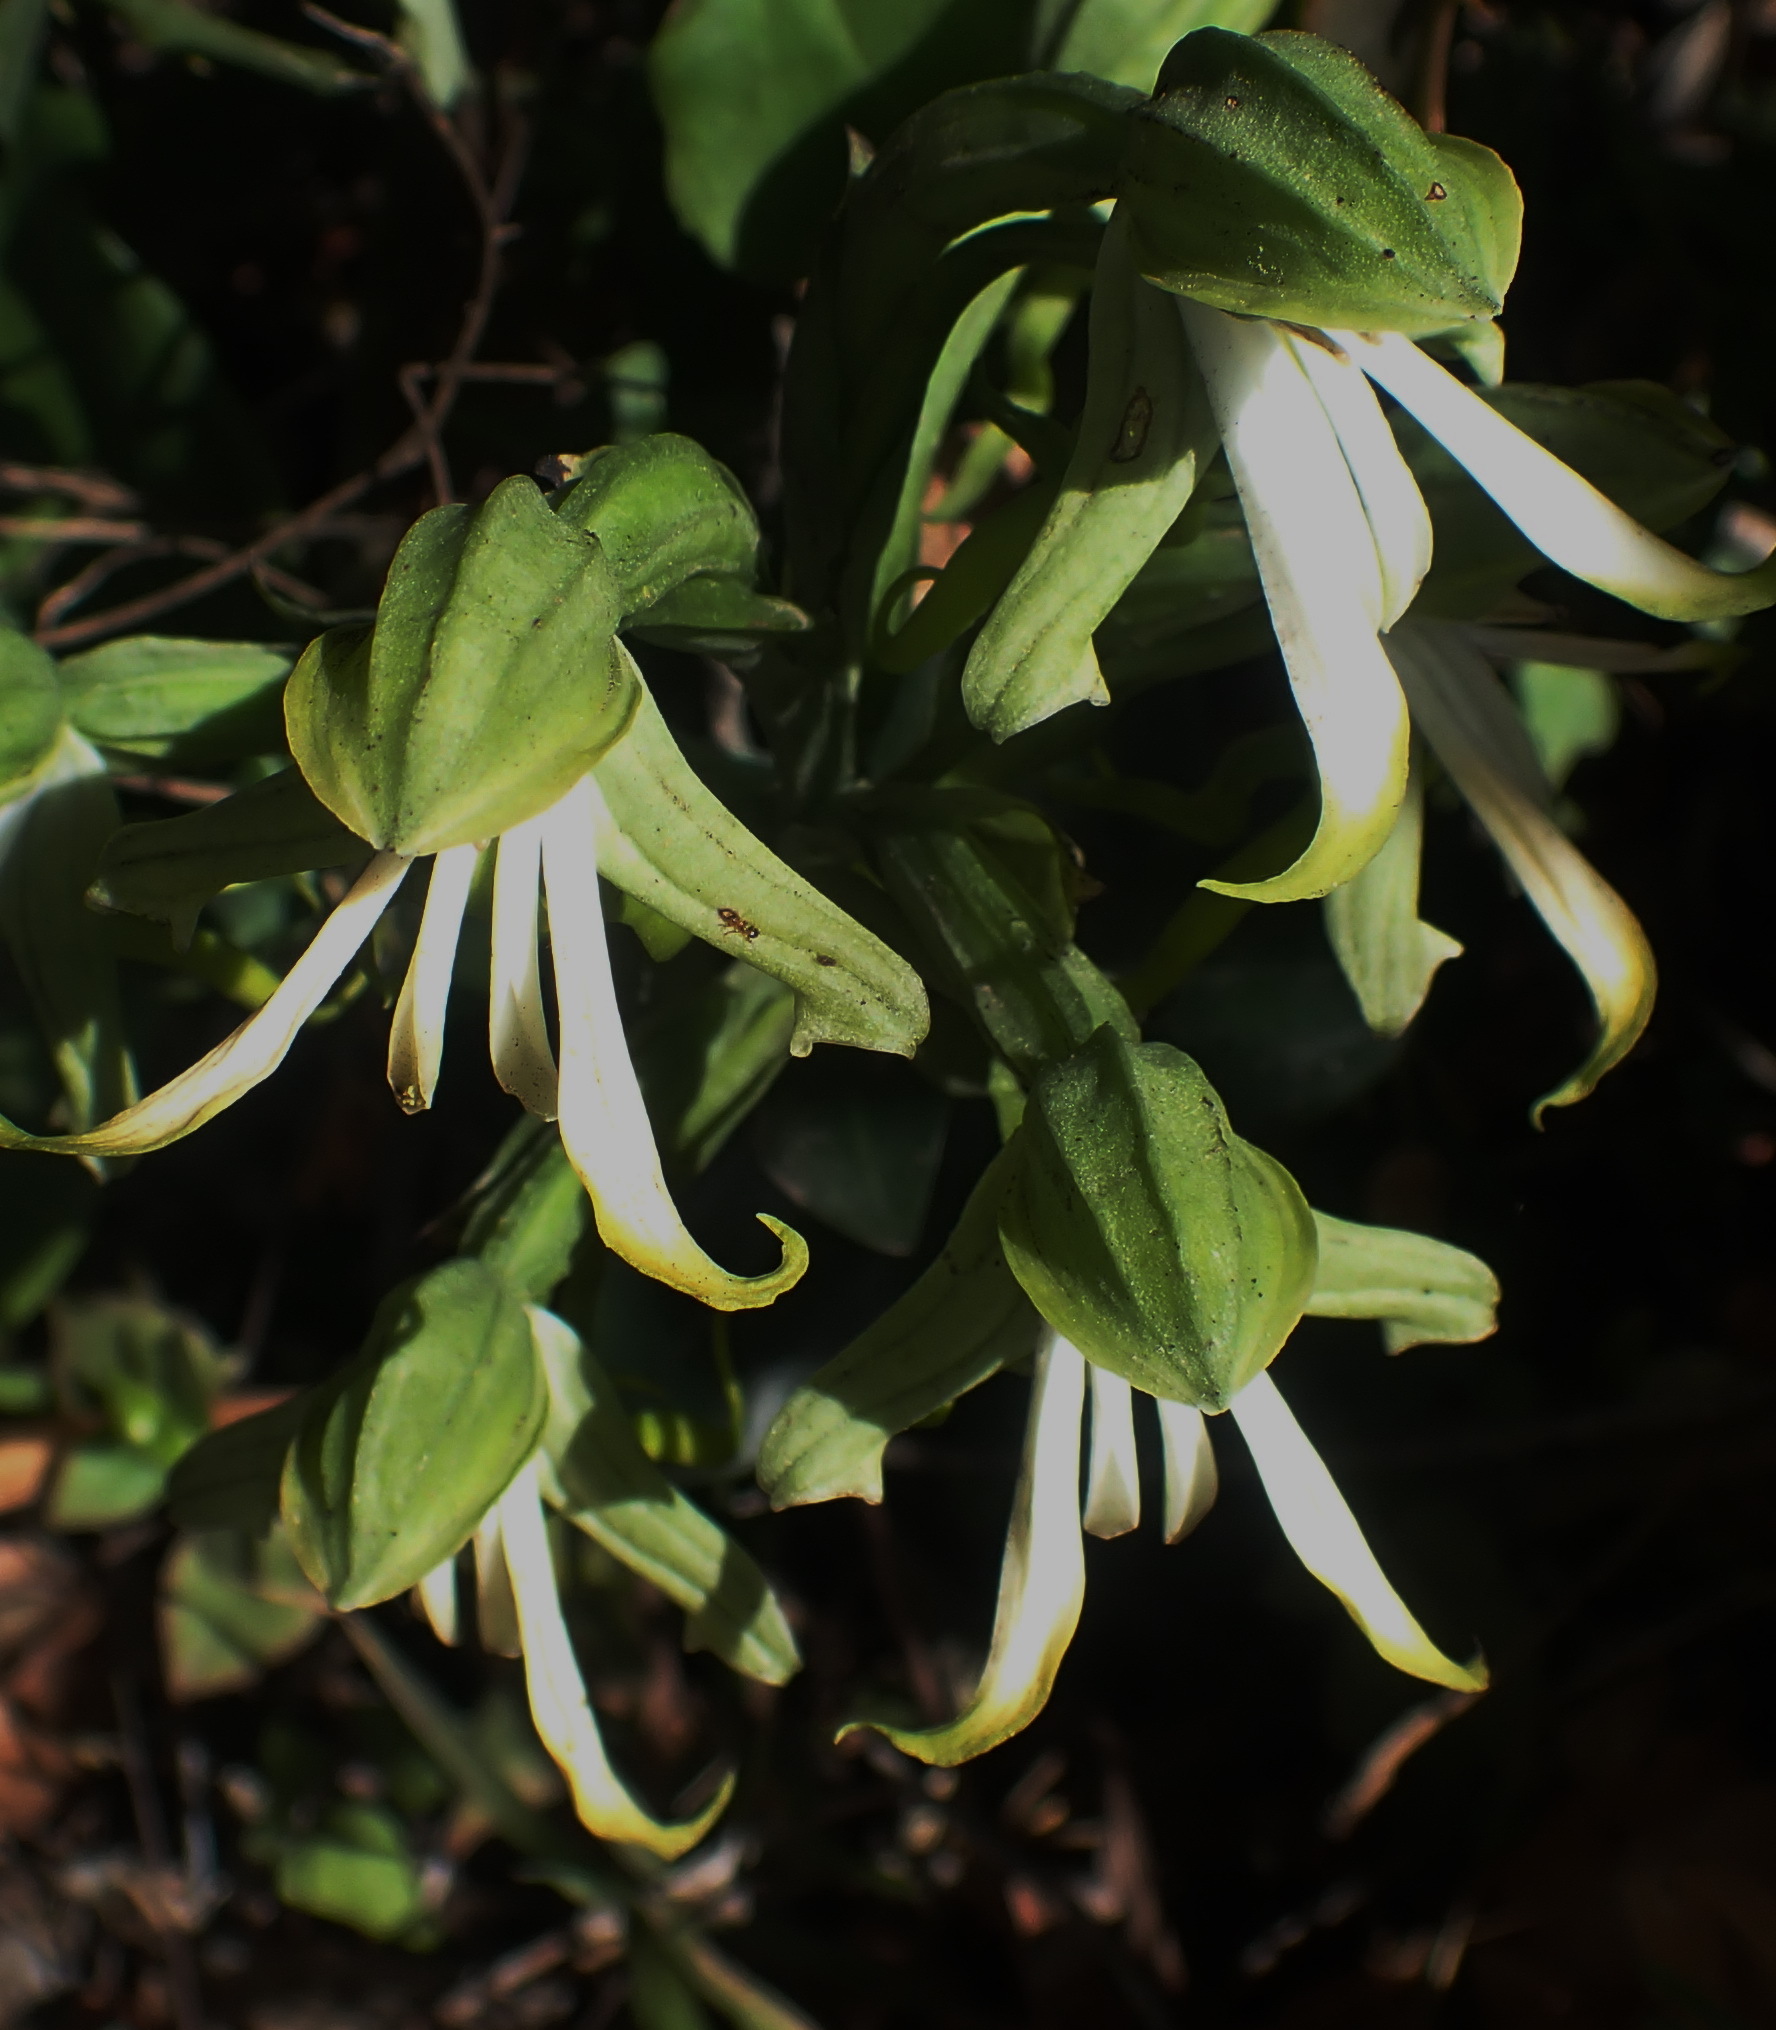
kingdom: Plantae
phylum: Tracheophyta
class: Liliopsida
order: Asparagales
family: Orchidaceae
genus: Bonatea
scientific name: Bonatea speciosa
